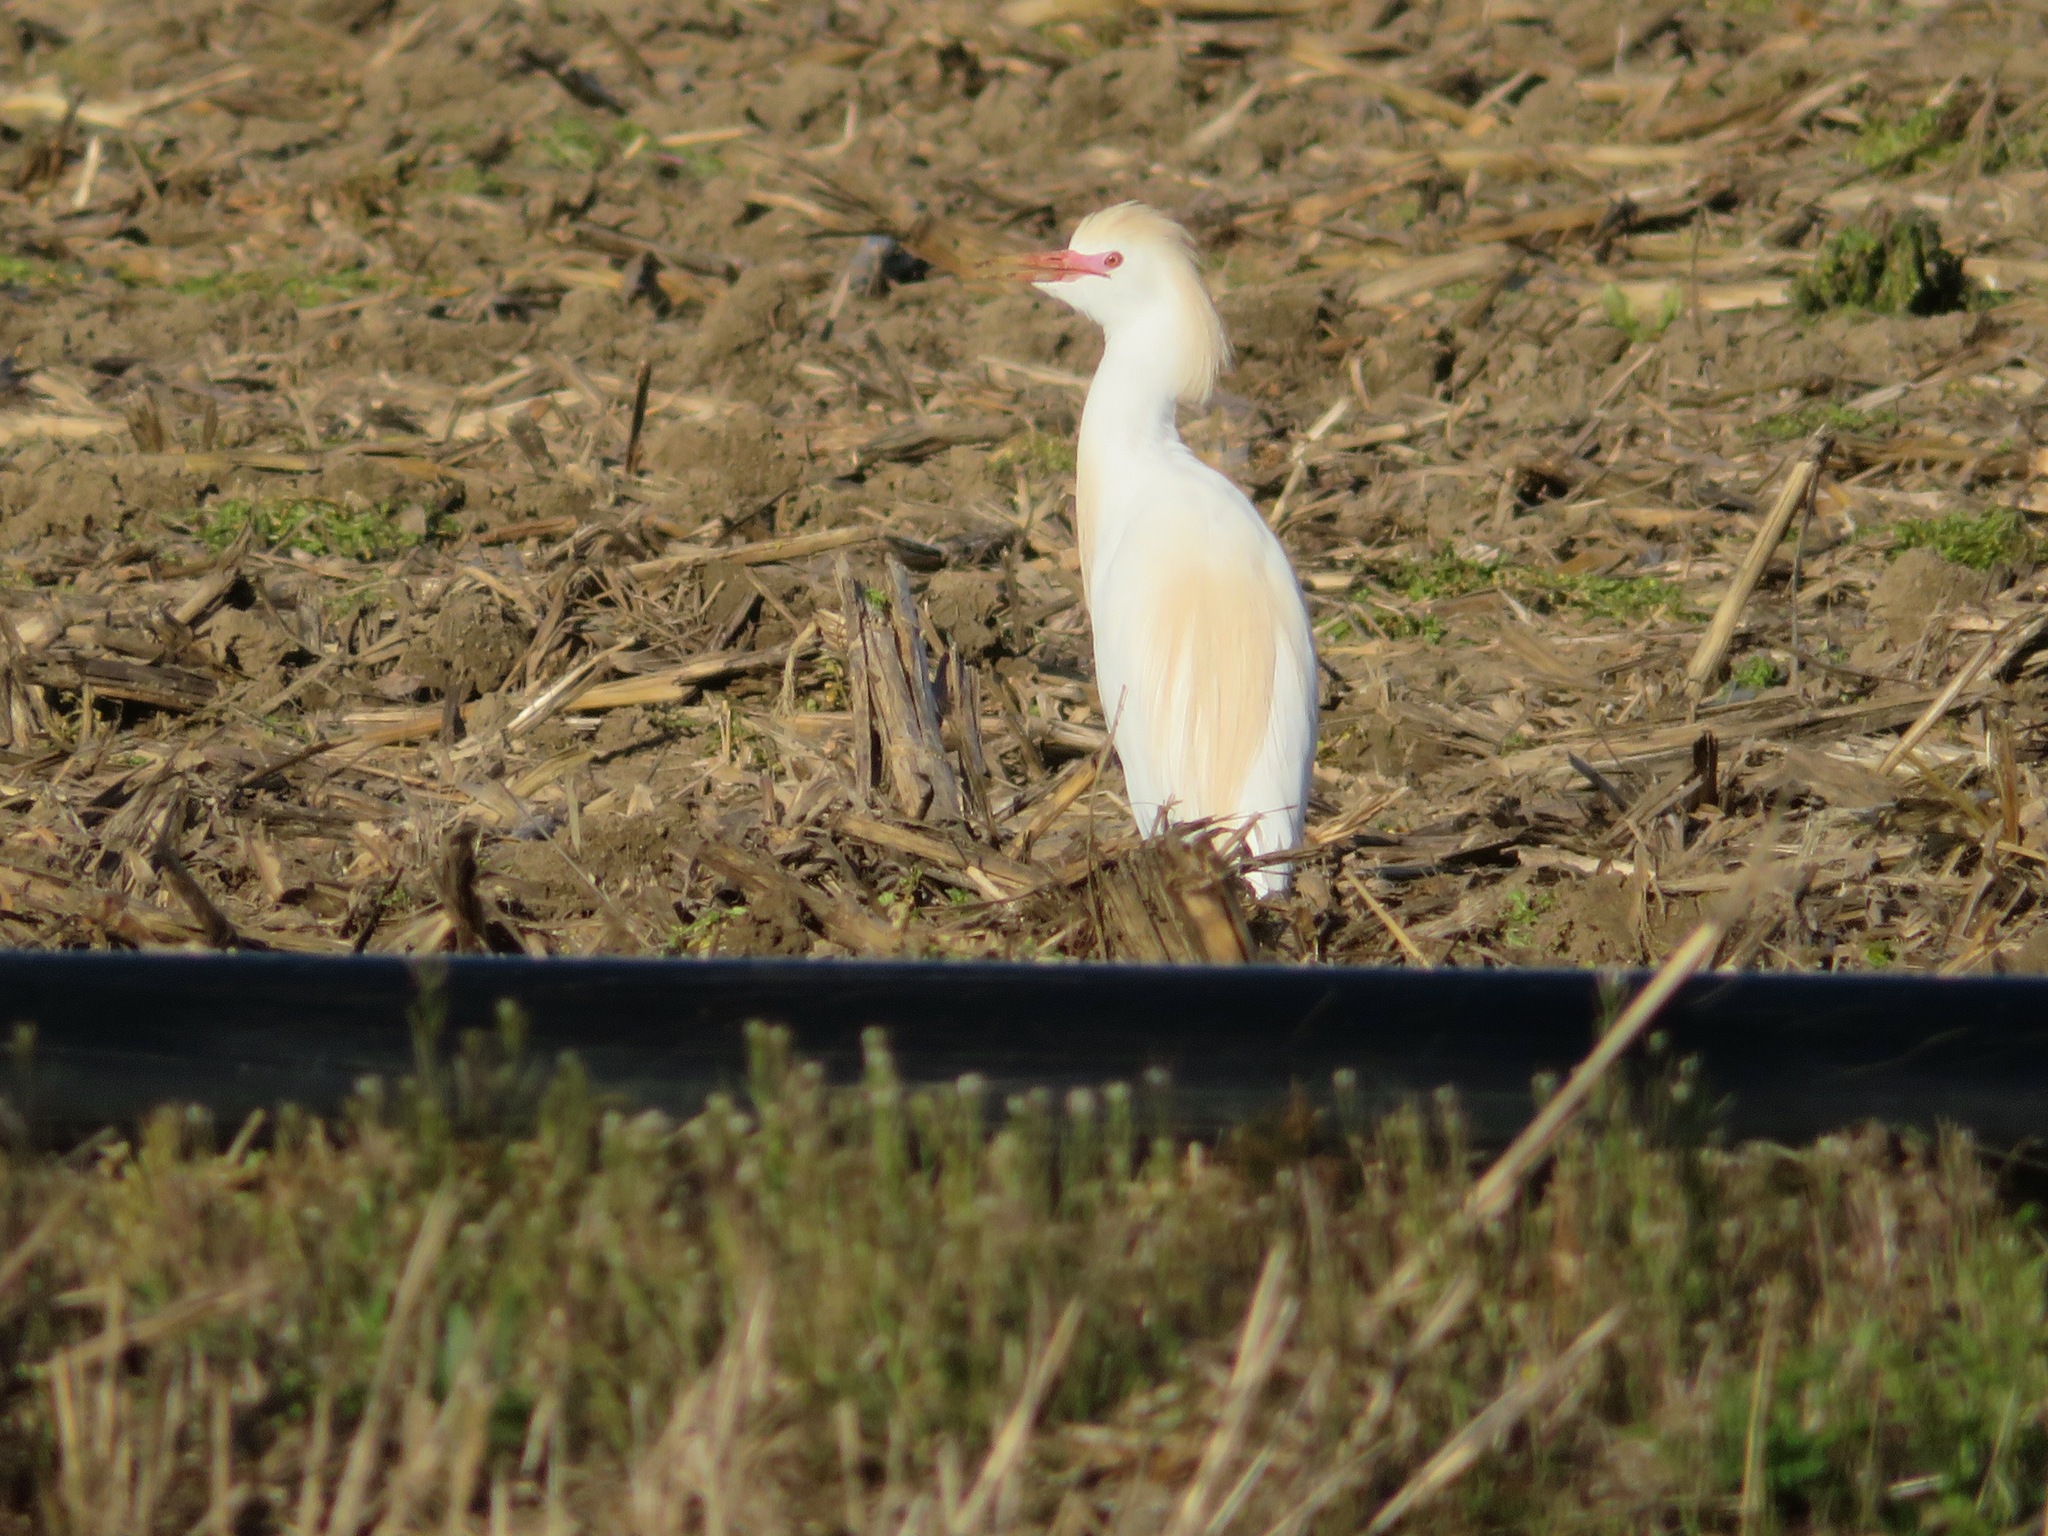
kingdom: Animalia
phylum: Chordata
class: Aves
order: Pelecaniformes
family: Ardeidae
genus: Bubulcus
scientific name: Bubulcus ibis
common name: Cattle egret
